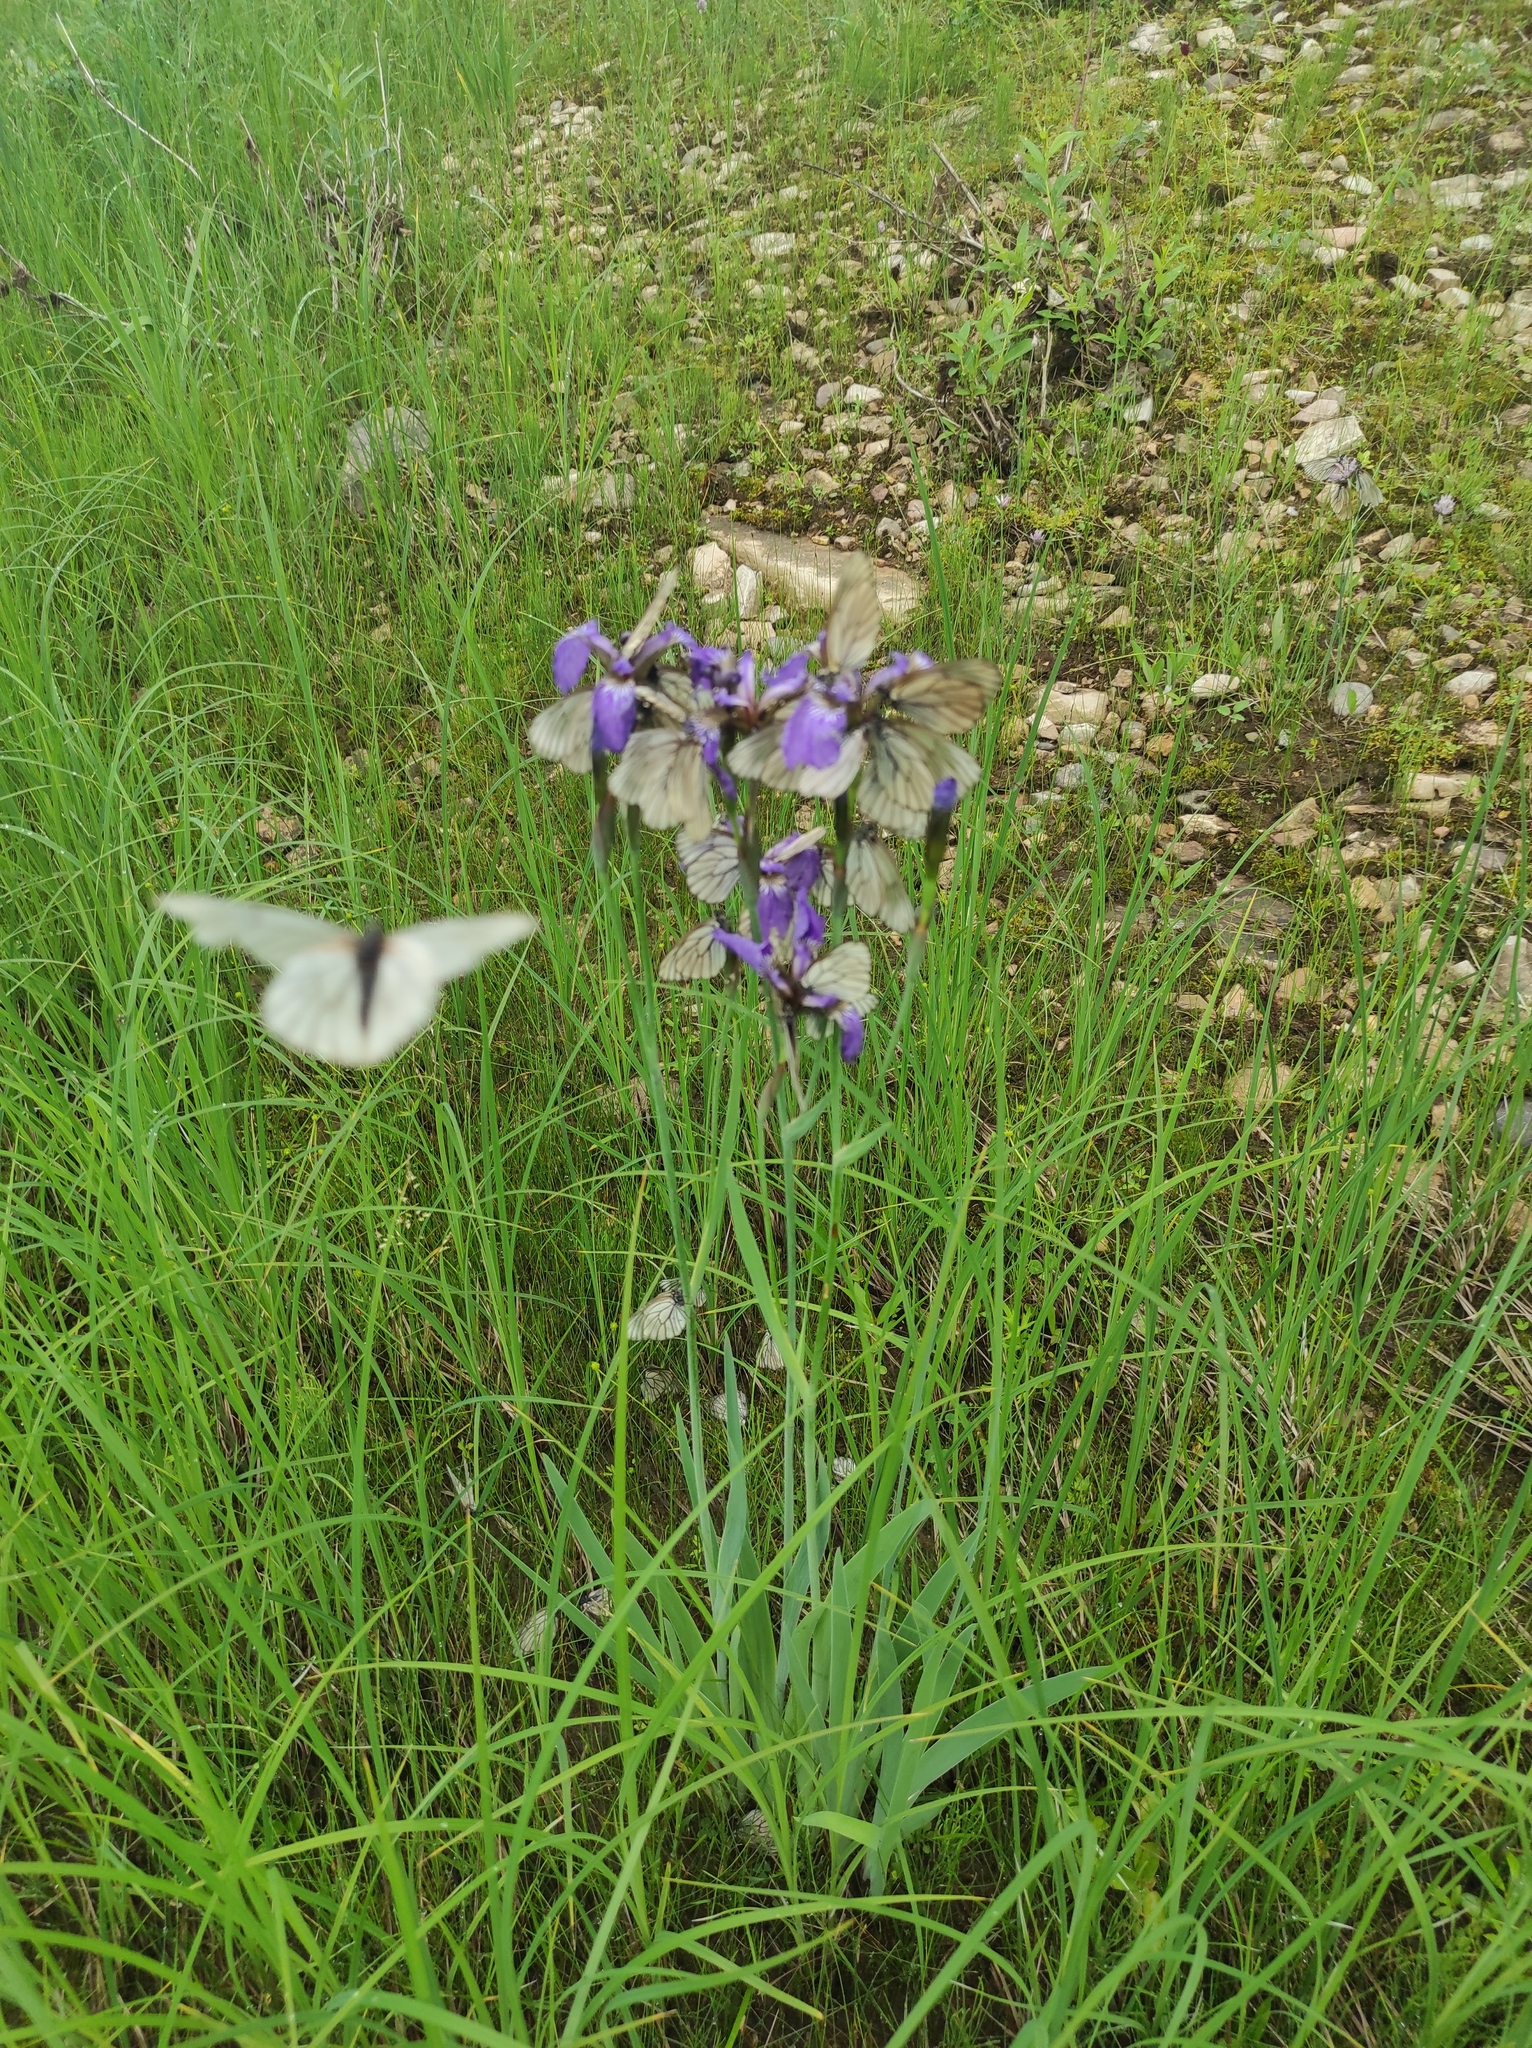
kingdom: Plantae
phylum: Tracheophyta
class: Liliopsida
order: Asparagales
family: Iridaceae
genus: Iris
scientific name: Iris setosa
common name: Arctic blue flag
